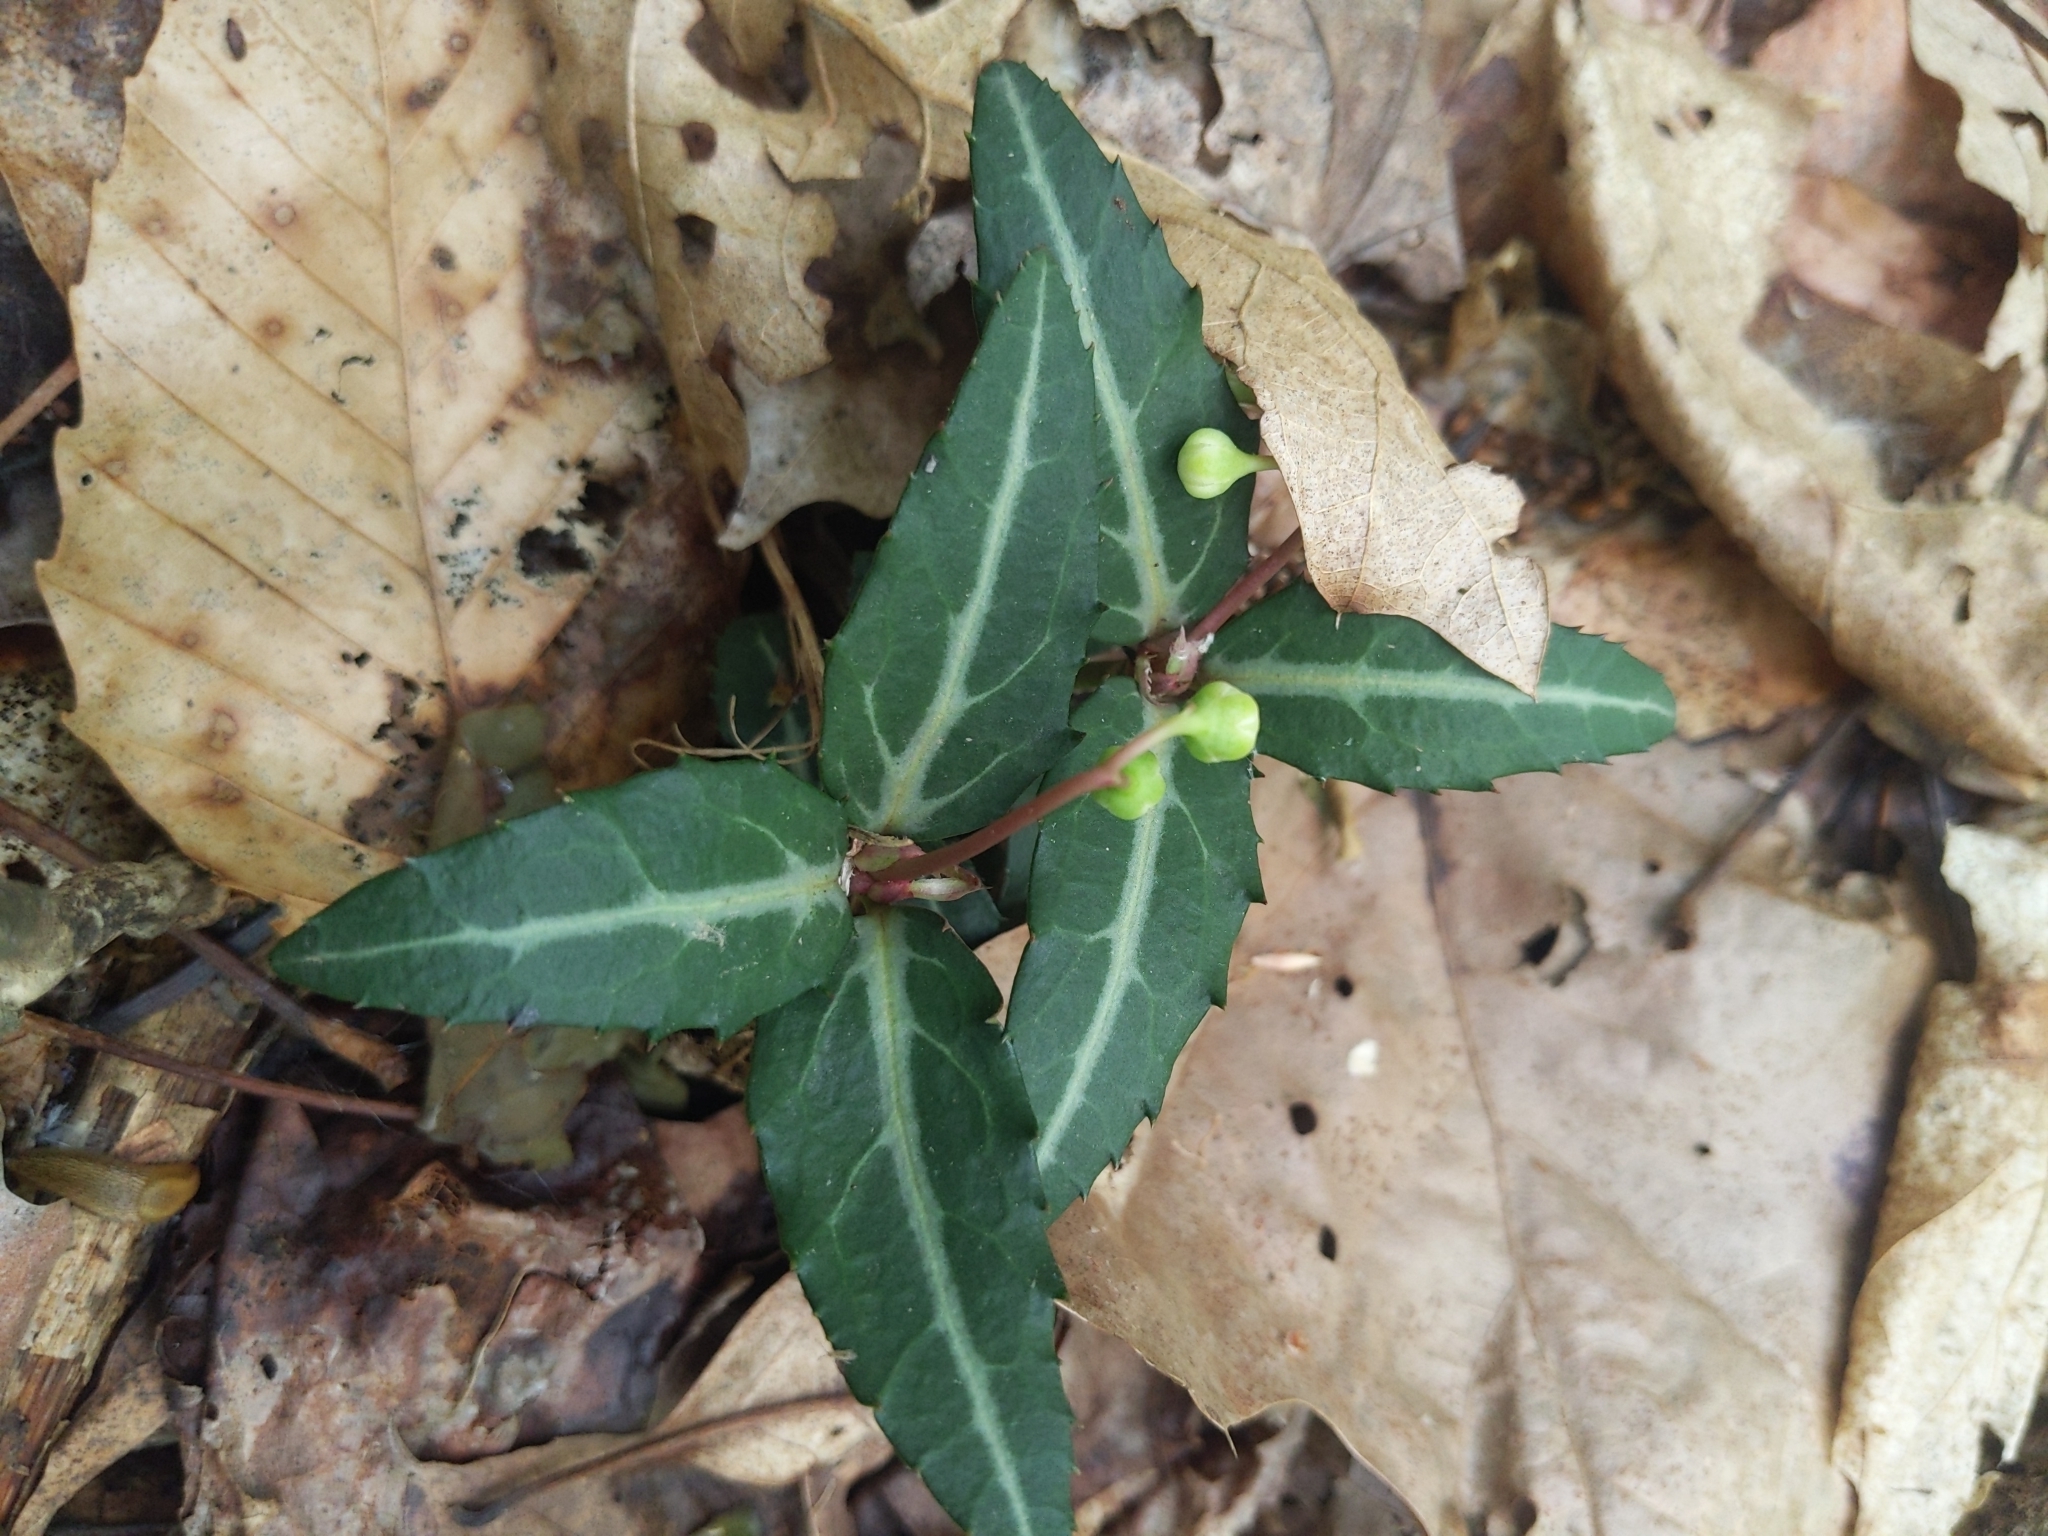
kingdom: Plantae
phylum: Tracheophyta
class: Magnoliopsida
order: Ericales
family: Ericaceae
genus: Chimaphila
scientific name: Chimaphila maculata
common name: Spotted pipsissewa
